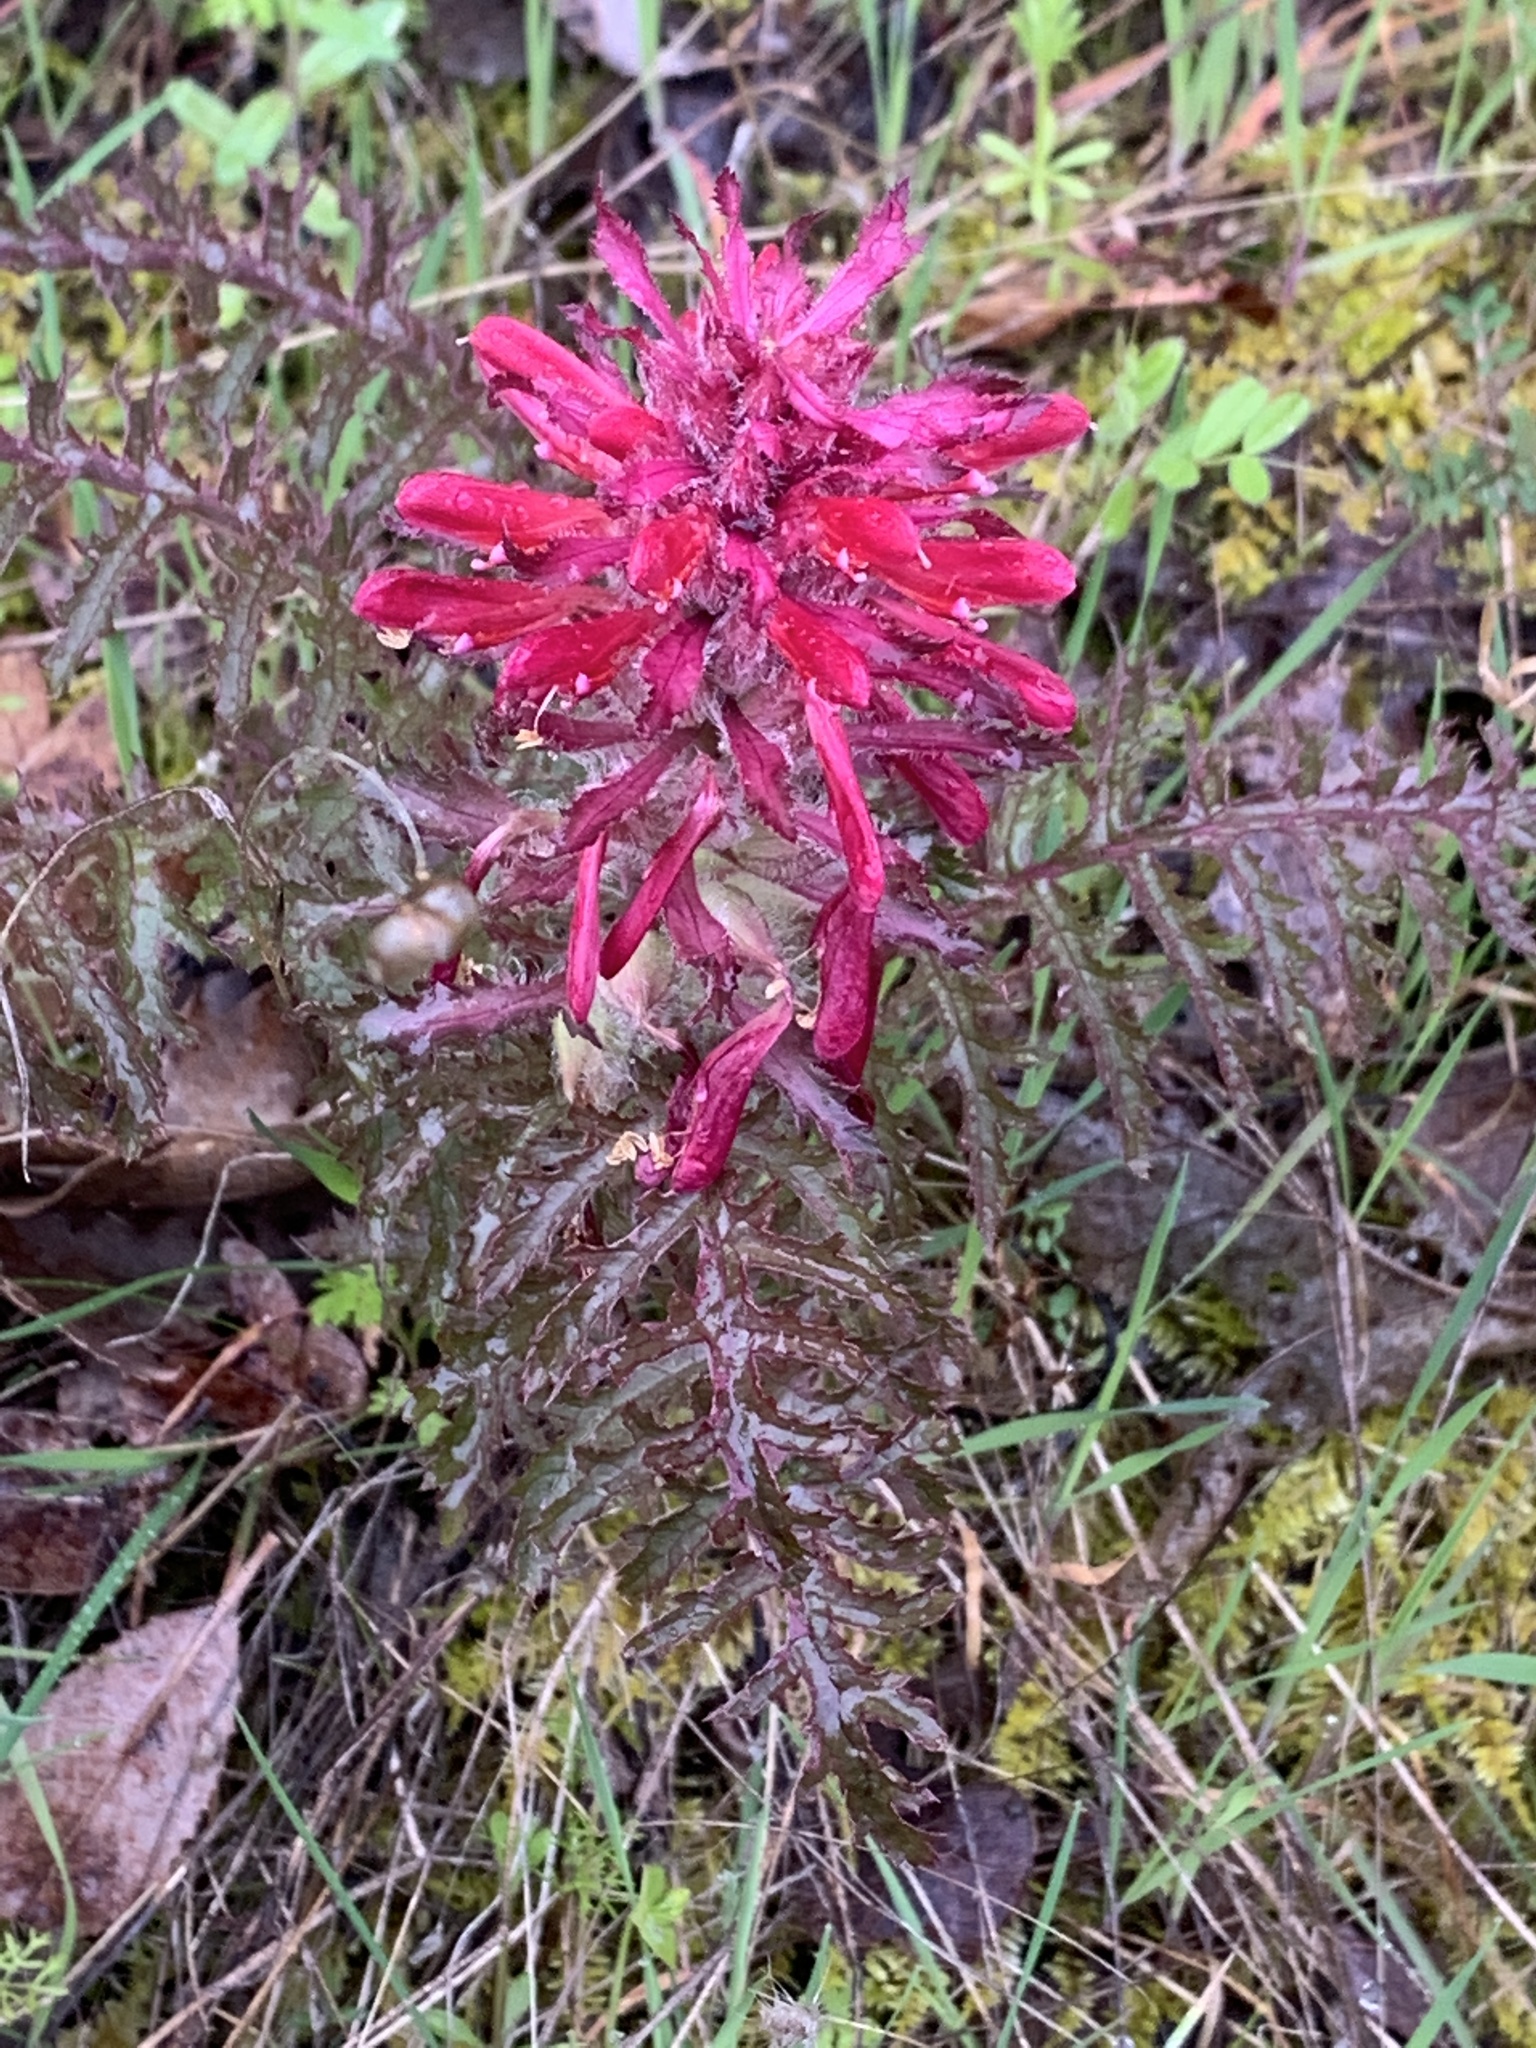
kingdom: Plantae
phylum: Tracheophyta
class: Magnoliopsida
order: Lamiales
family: Orobanchaceae
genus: Pedicularis
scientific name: Pedicularis densiflora
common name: Indian warrior
